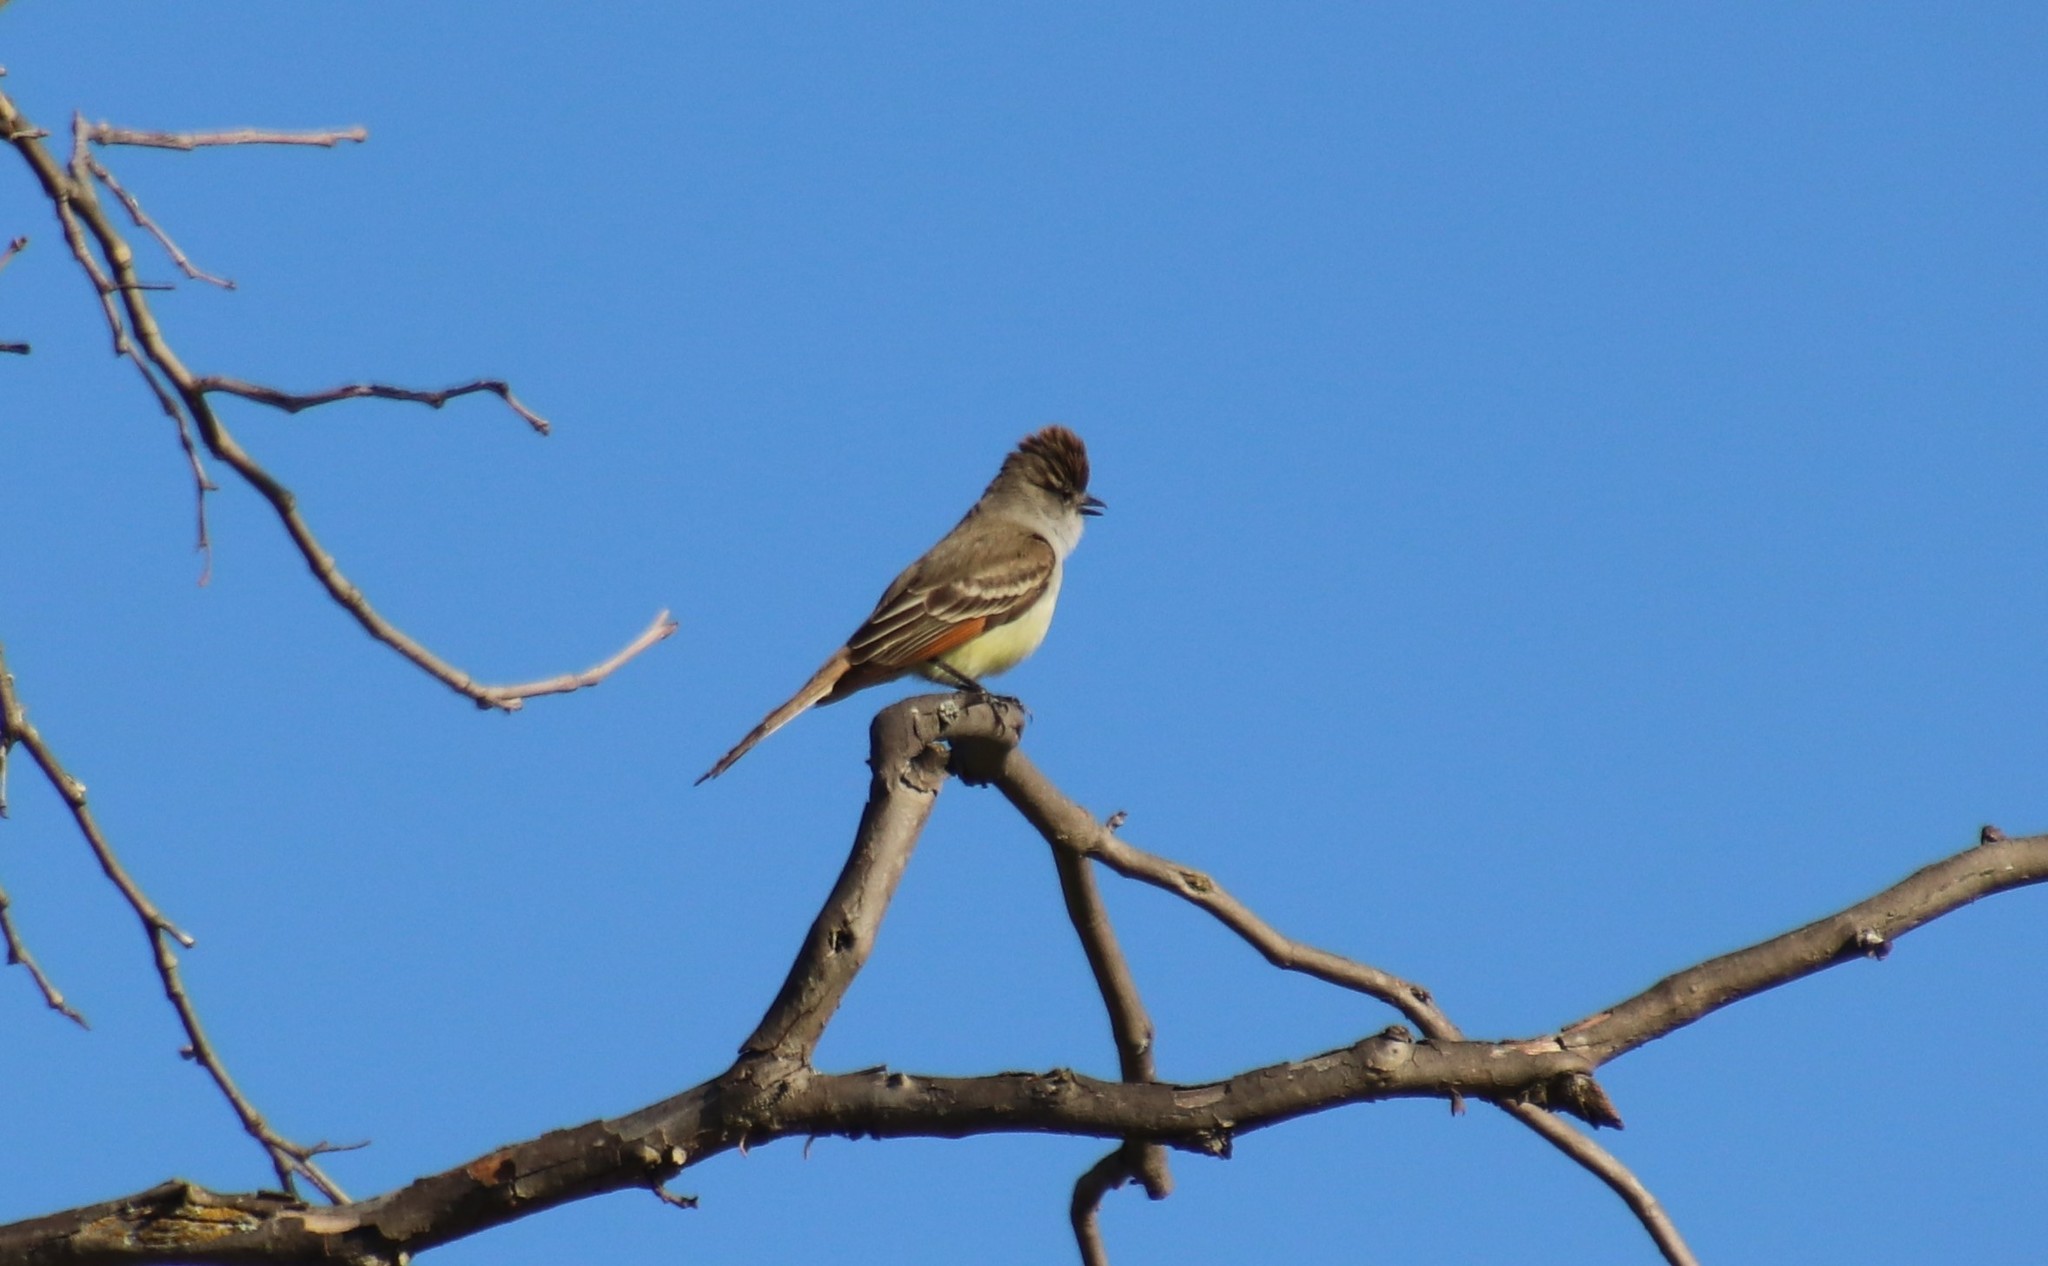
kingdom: Animalia
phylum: Chordata
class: Aves
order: Passeriformes
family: Tyrannidae
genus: Myiarchus
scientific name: Myiarchus cinerascens
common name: Ash-throated flycatcher
